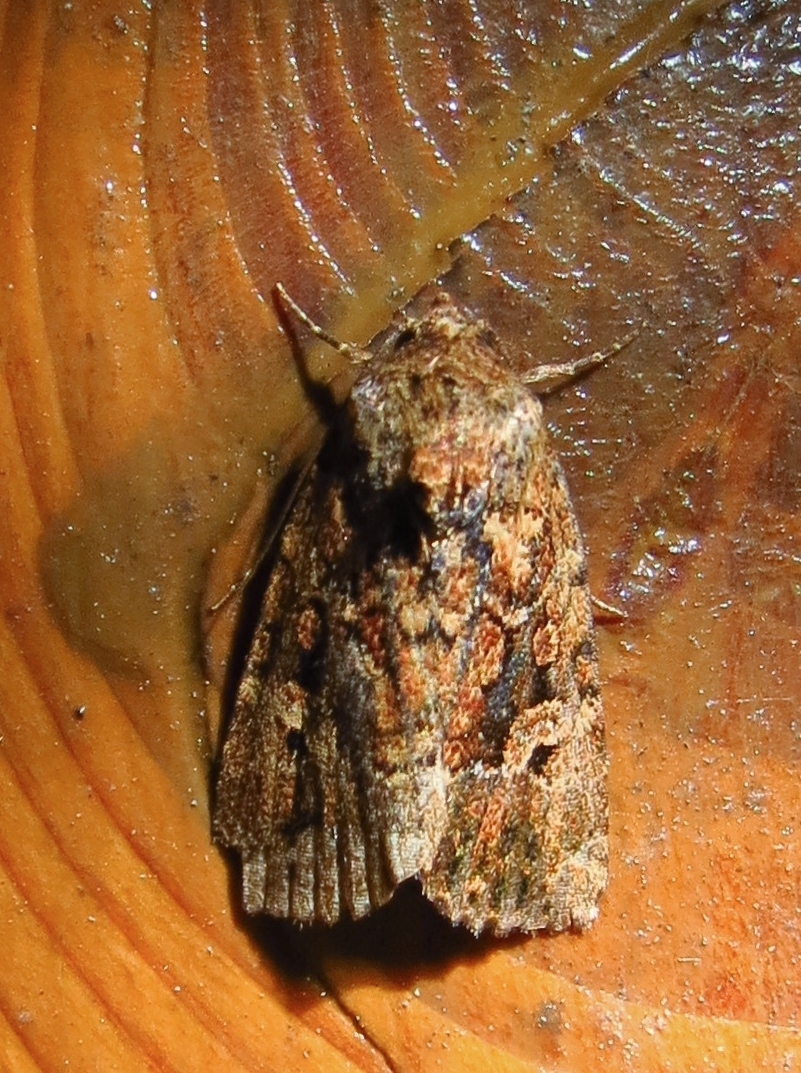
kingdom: Animalia
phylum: Arthropoda
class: Insecta
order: Lepidoptera
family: Noctuidae
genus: Elaphria
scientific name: Elaphria exesa
